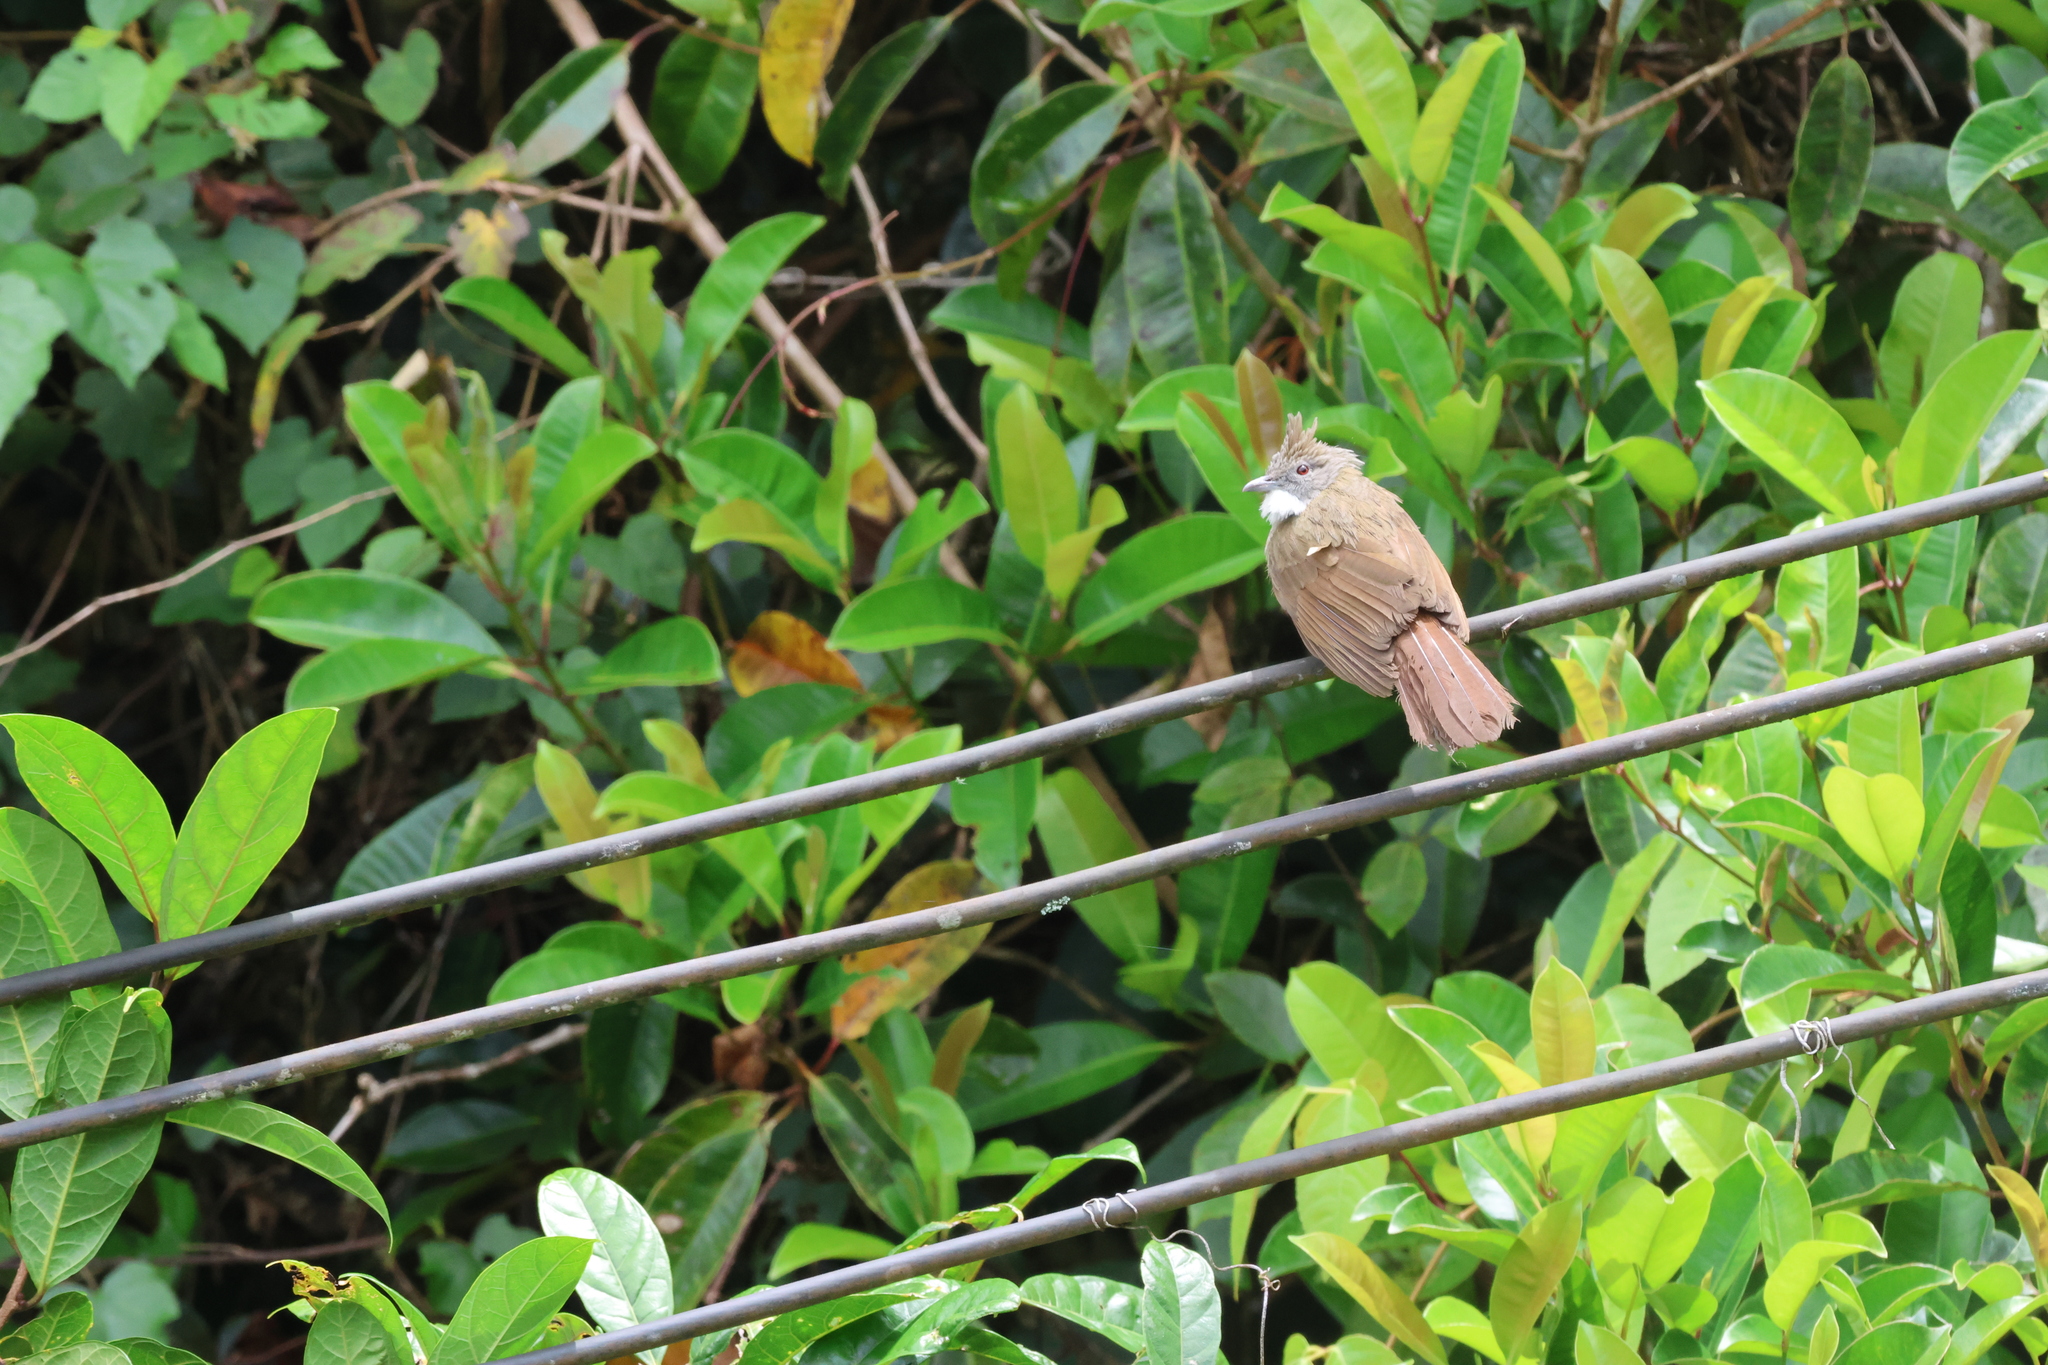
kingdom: Animalia
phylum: Chordata
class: Aves
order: Passeriformes
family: Pycnonotidae
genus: Alophoixus
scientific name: Alophoixus ochraceus
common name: Ochraceous bulbul
